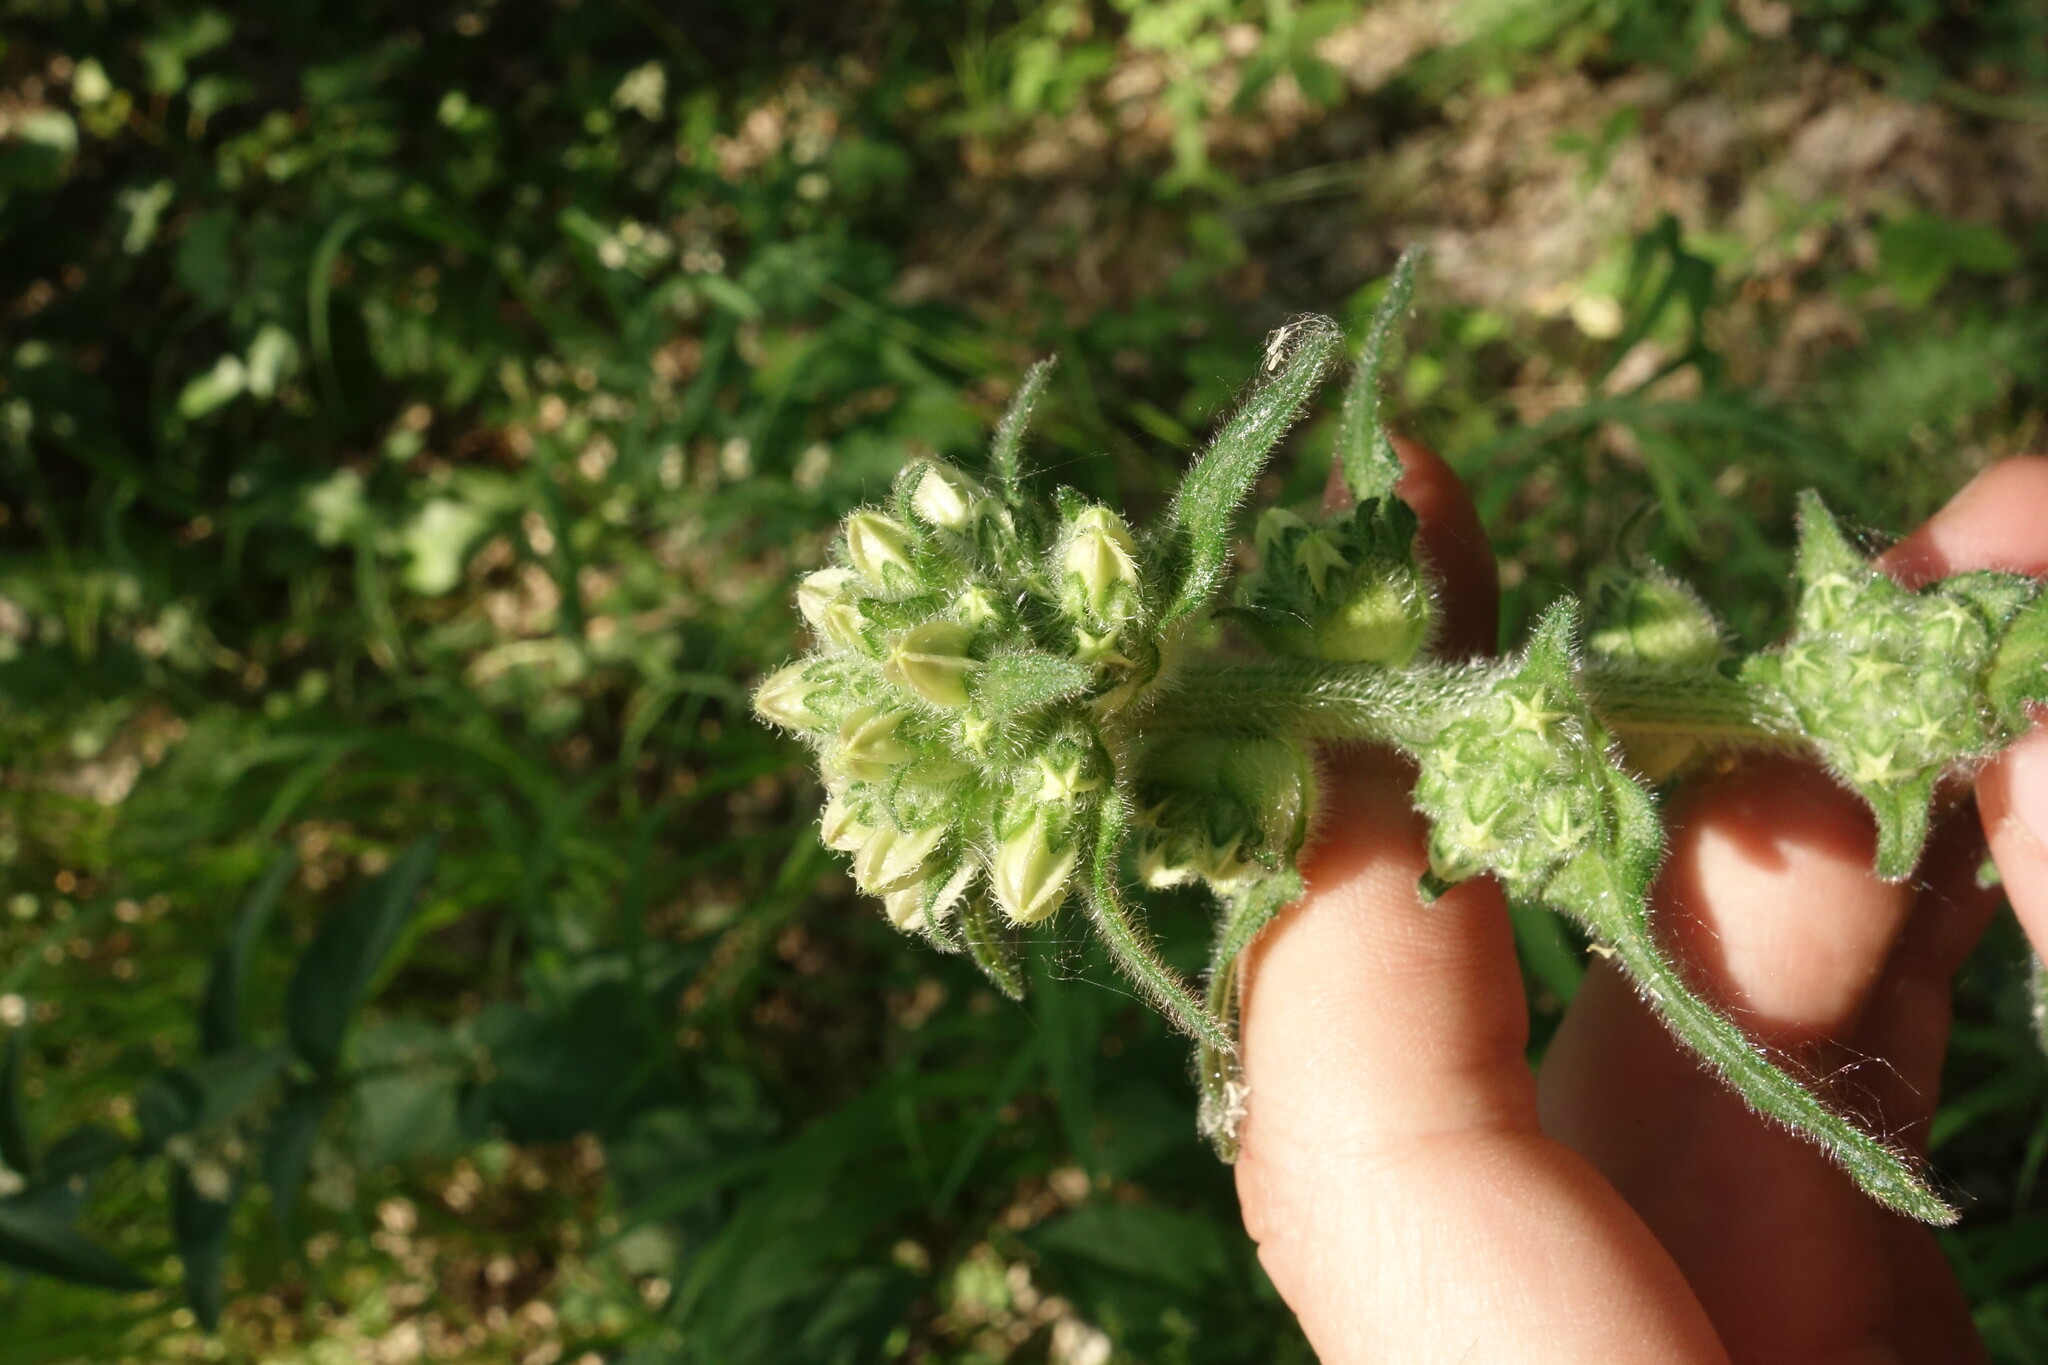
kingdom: Plantae
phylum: Tracheophyta
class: Magnoliopsida
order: Asterales
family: Campanulaceae
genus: Campanula
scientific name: Campanula cervicaria
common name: Bristly bellflower
